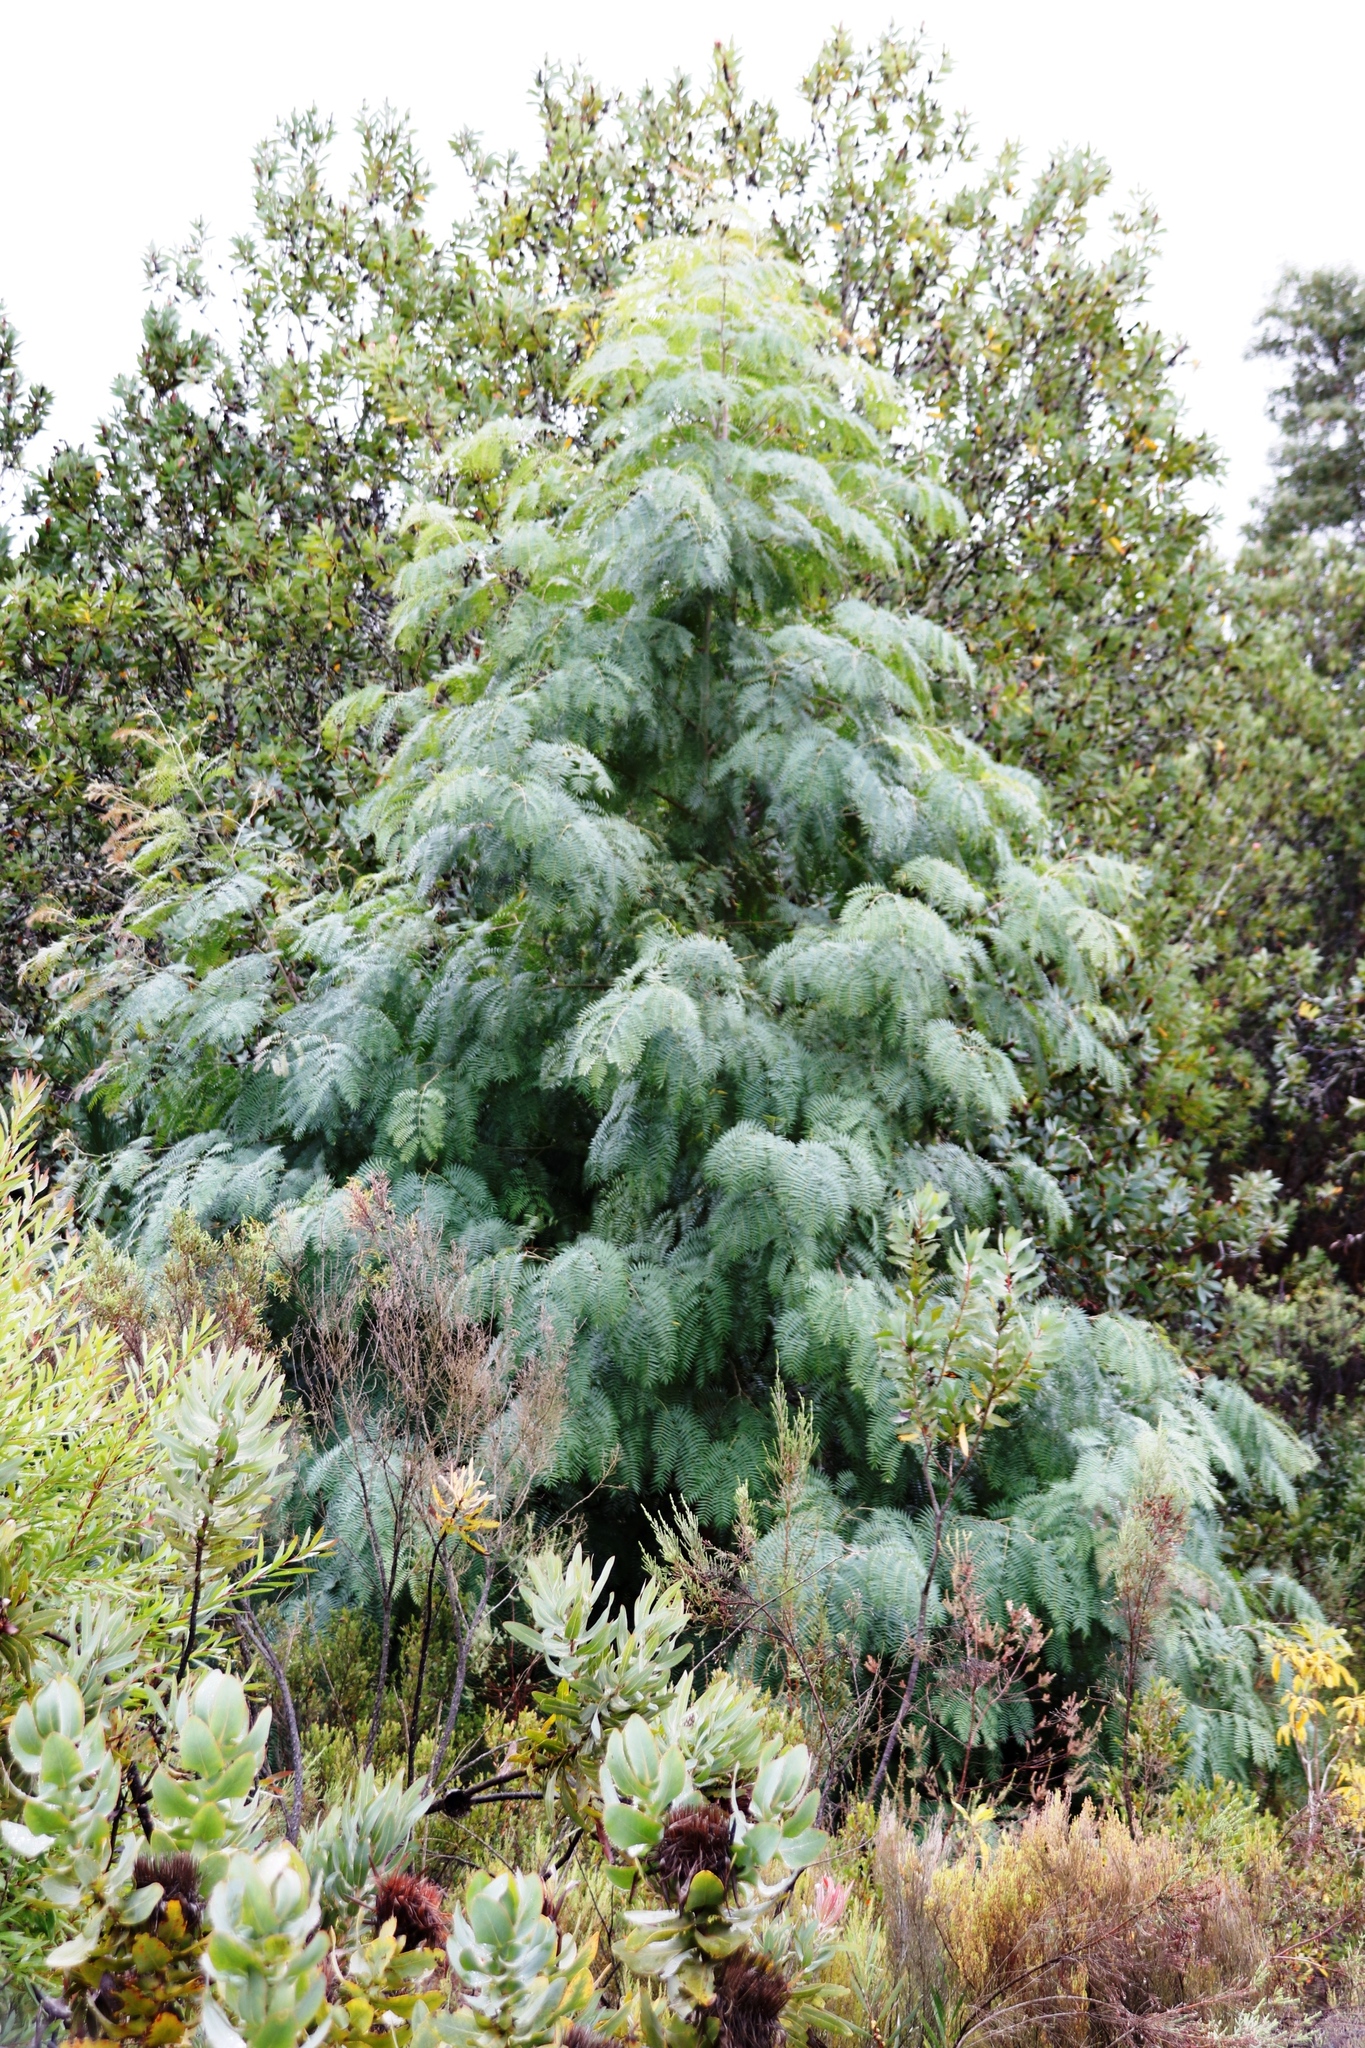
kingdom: Plantae
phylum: Tracheophyta
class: Magnoliopsida
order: Fabales
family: Fabaceae
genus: Acacia
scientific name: Acacia elata
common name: Cedar wattle
